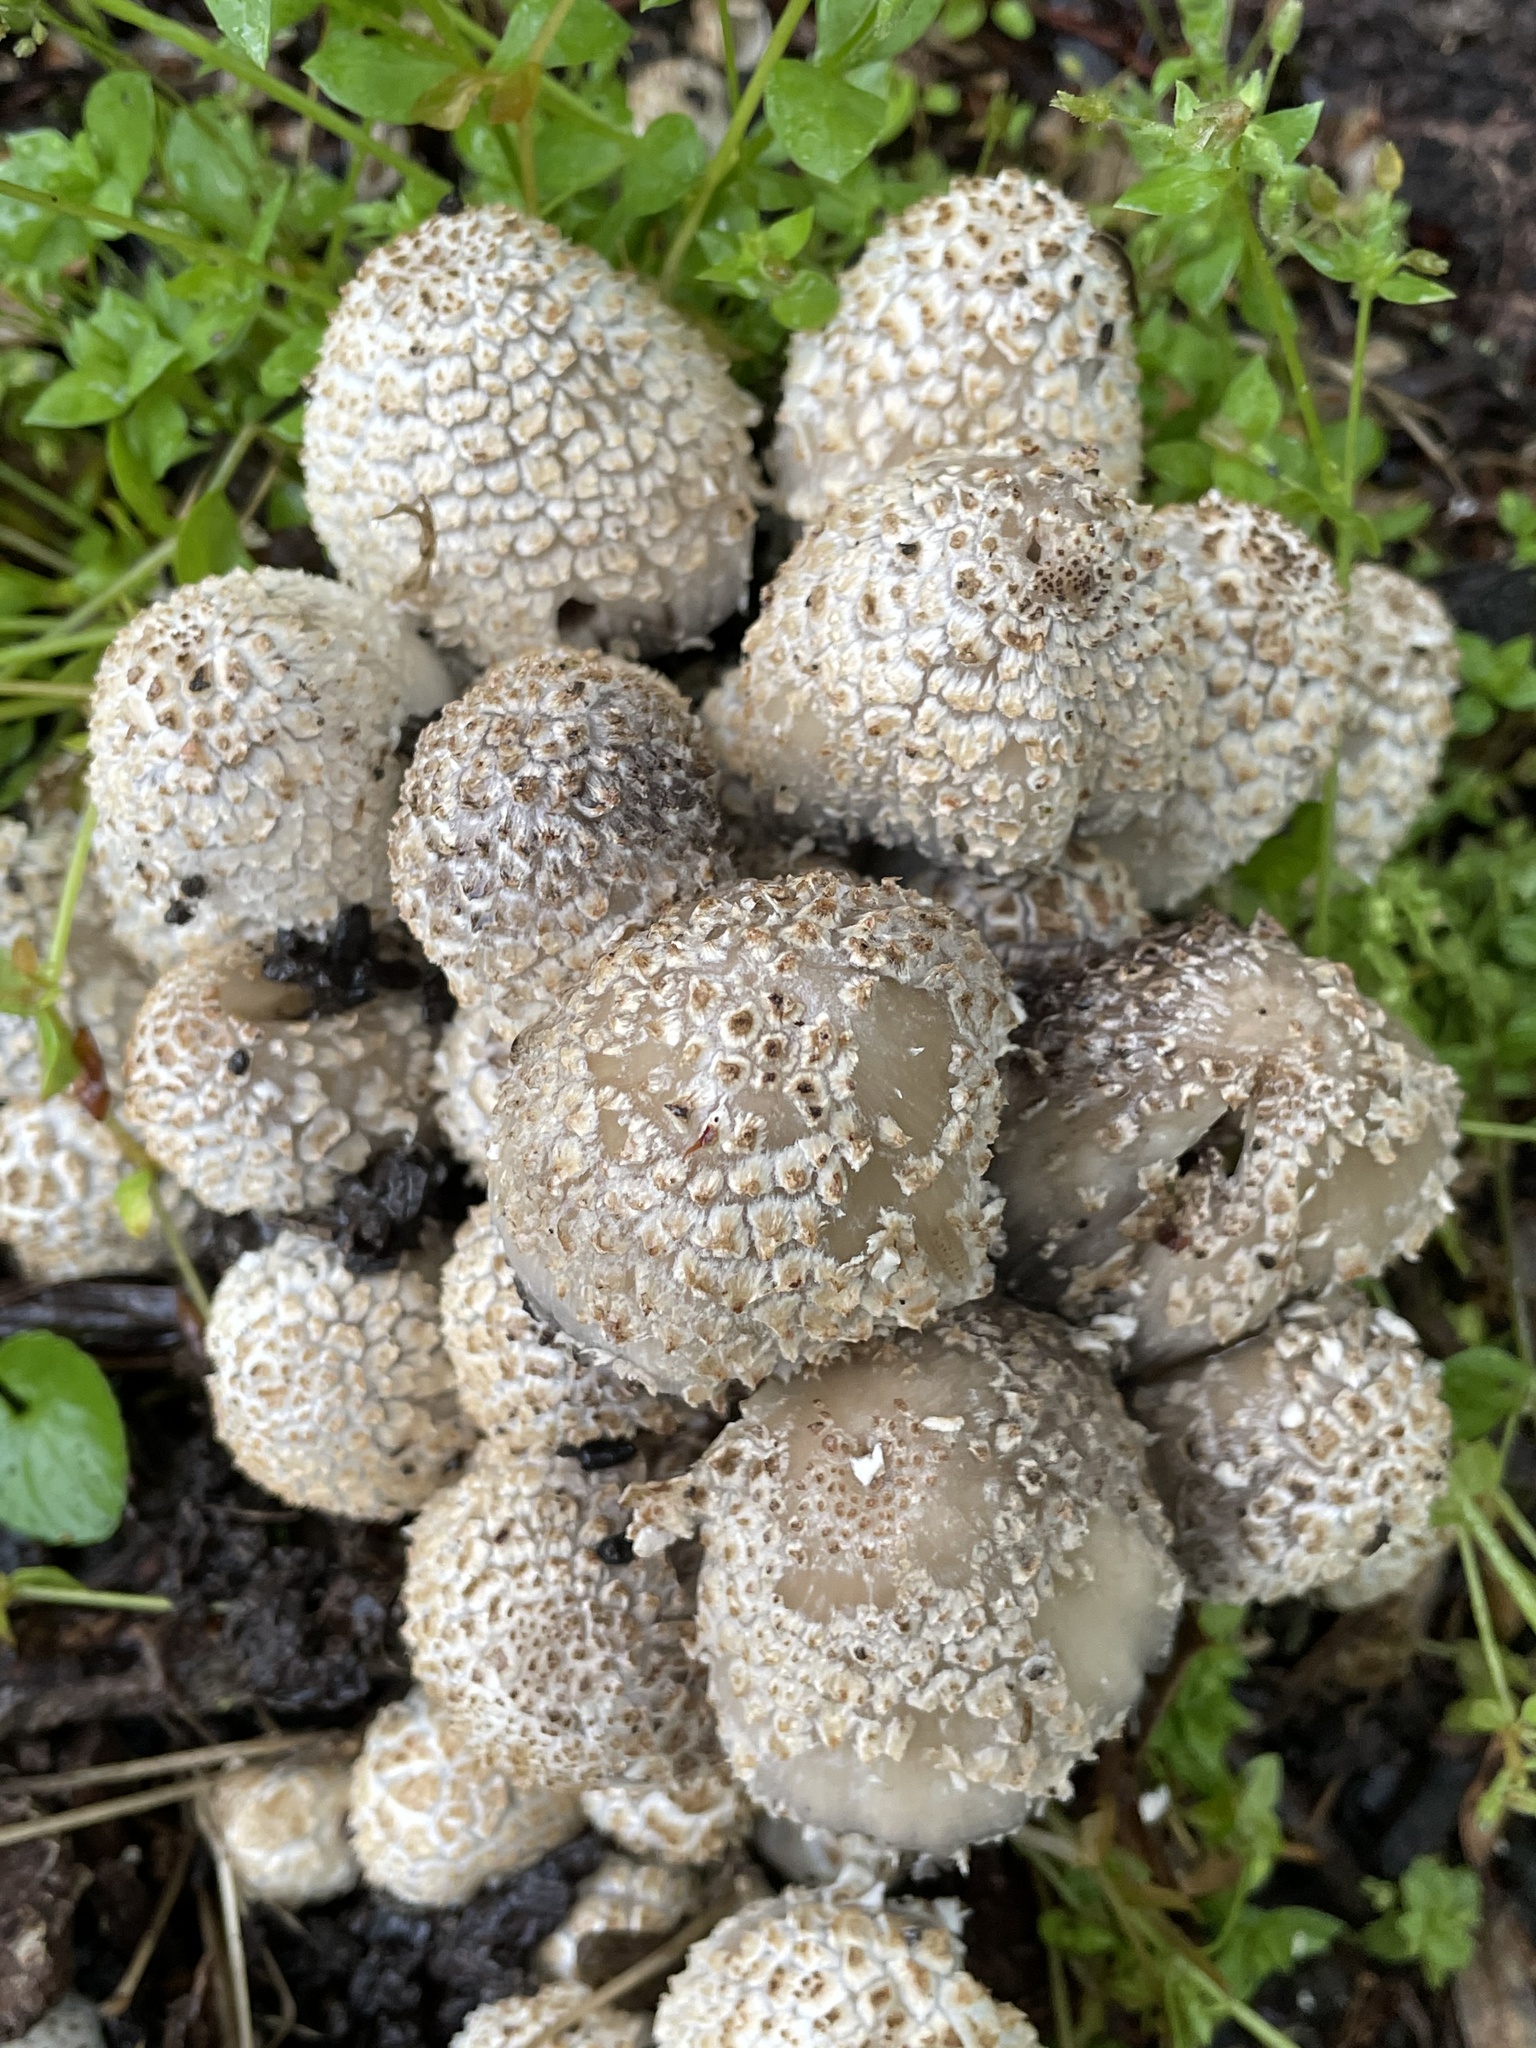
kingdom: Fungi
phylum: Basidiomycota
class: Agaricomycetes
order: Agaricales
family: Psathyrellaceae
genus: Coprinopsis
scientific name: Coprinopsis variegata
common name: Scaly ink cap
